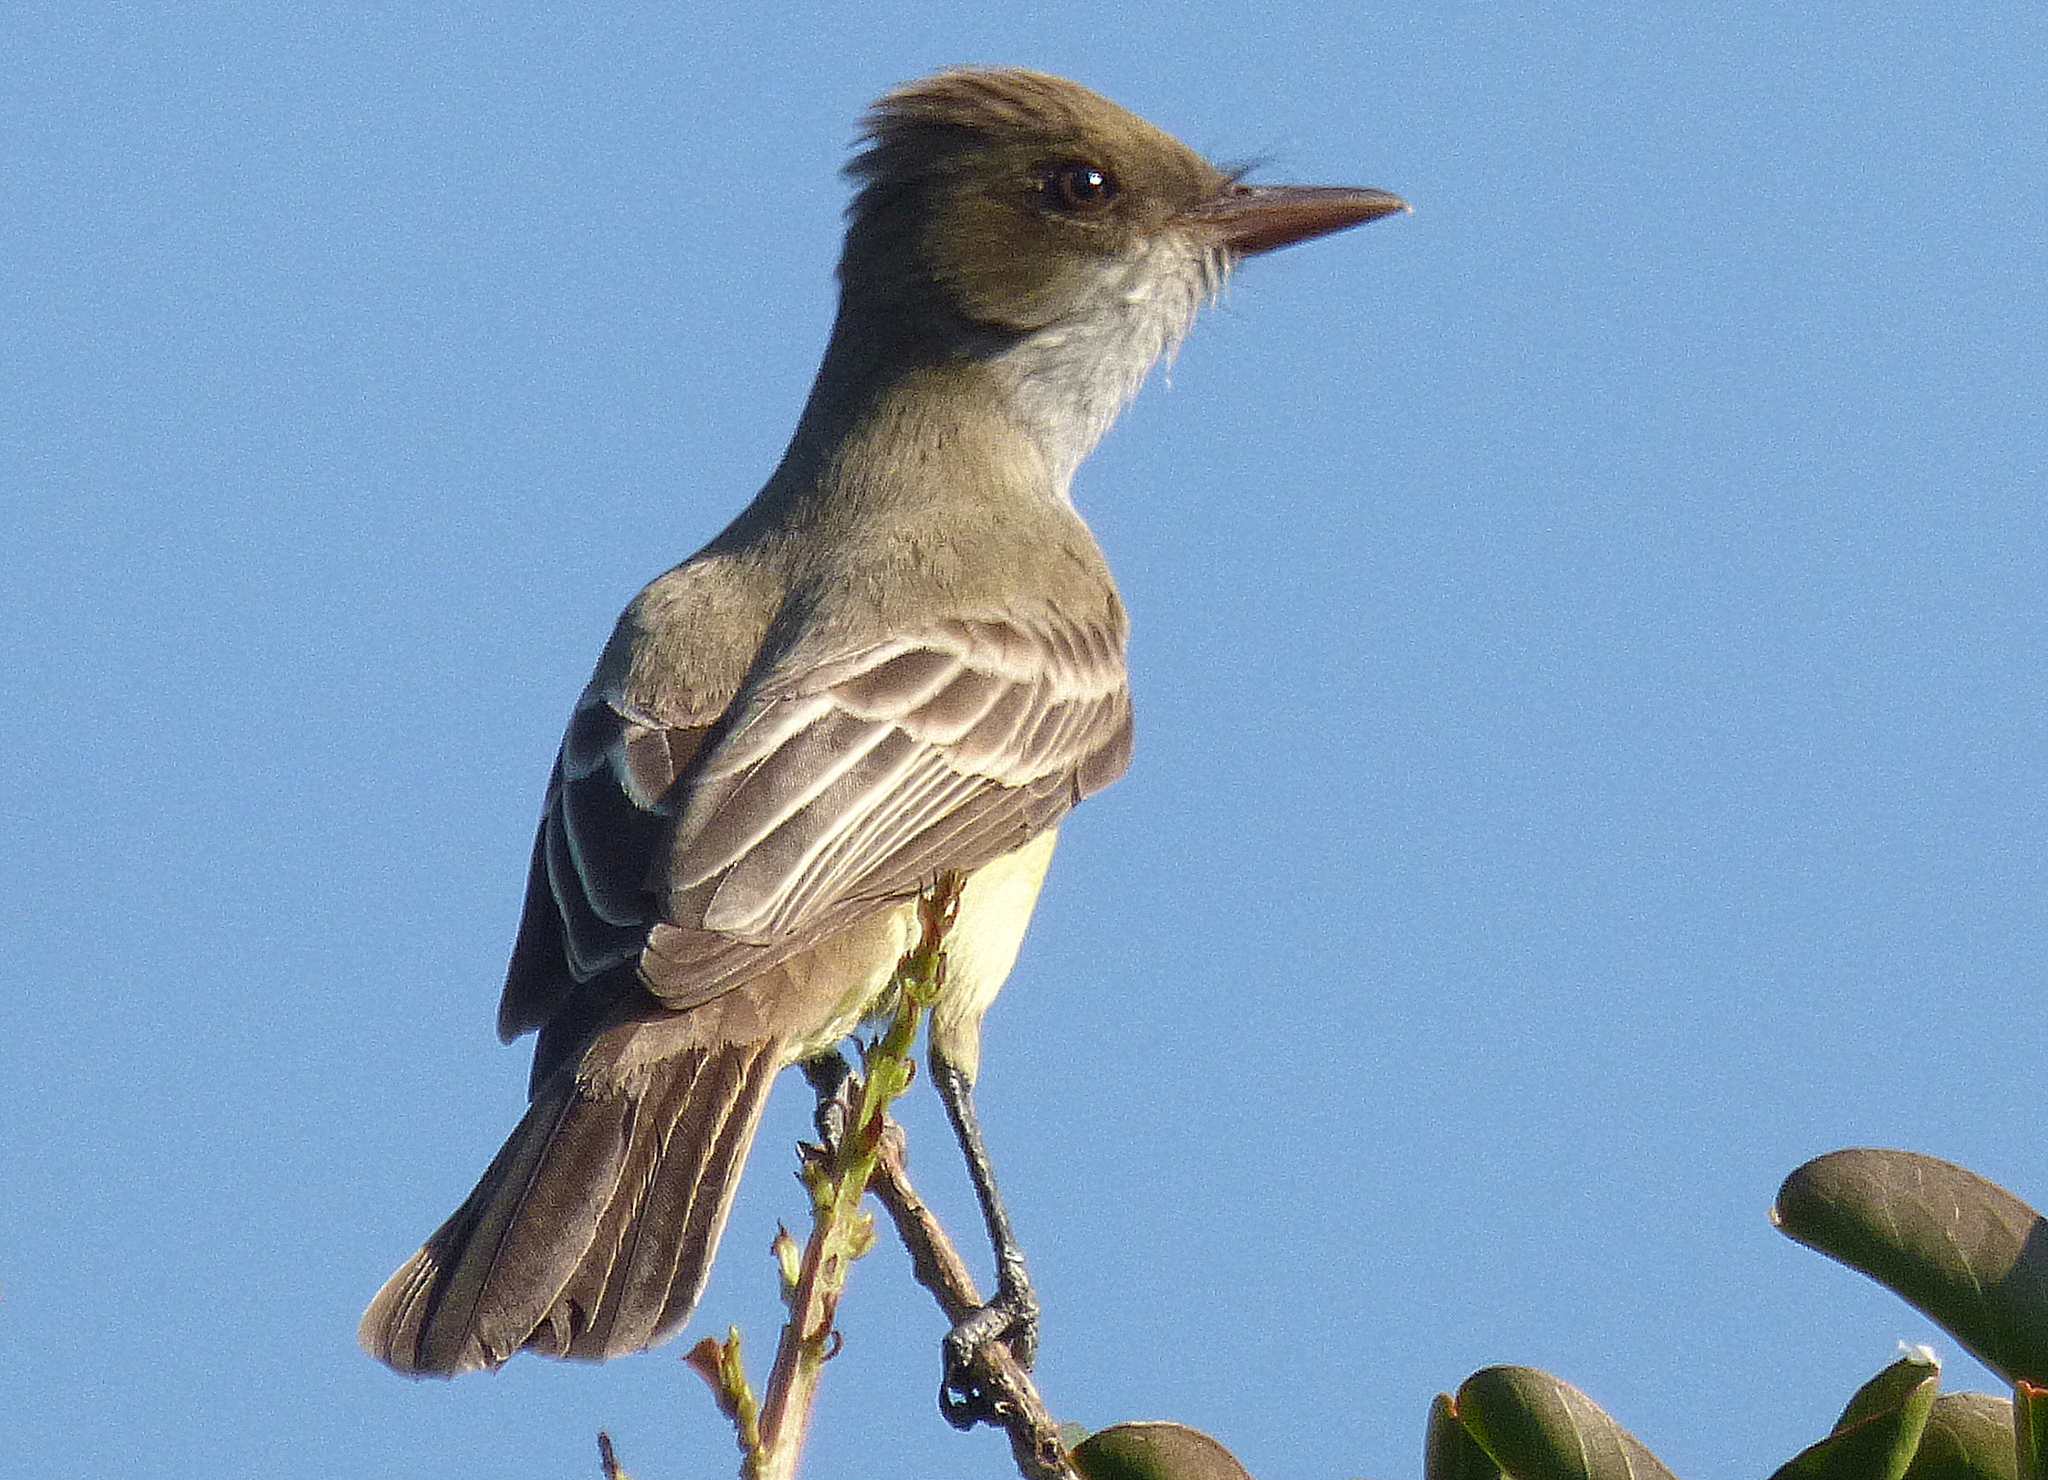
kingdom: Animalia
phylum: Chordata
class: Aves
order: Passeriformes
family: Tyrannidae
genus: Myiarchus
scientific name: Myiarchus swainsoni
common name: Swainson's flycatcher
